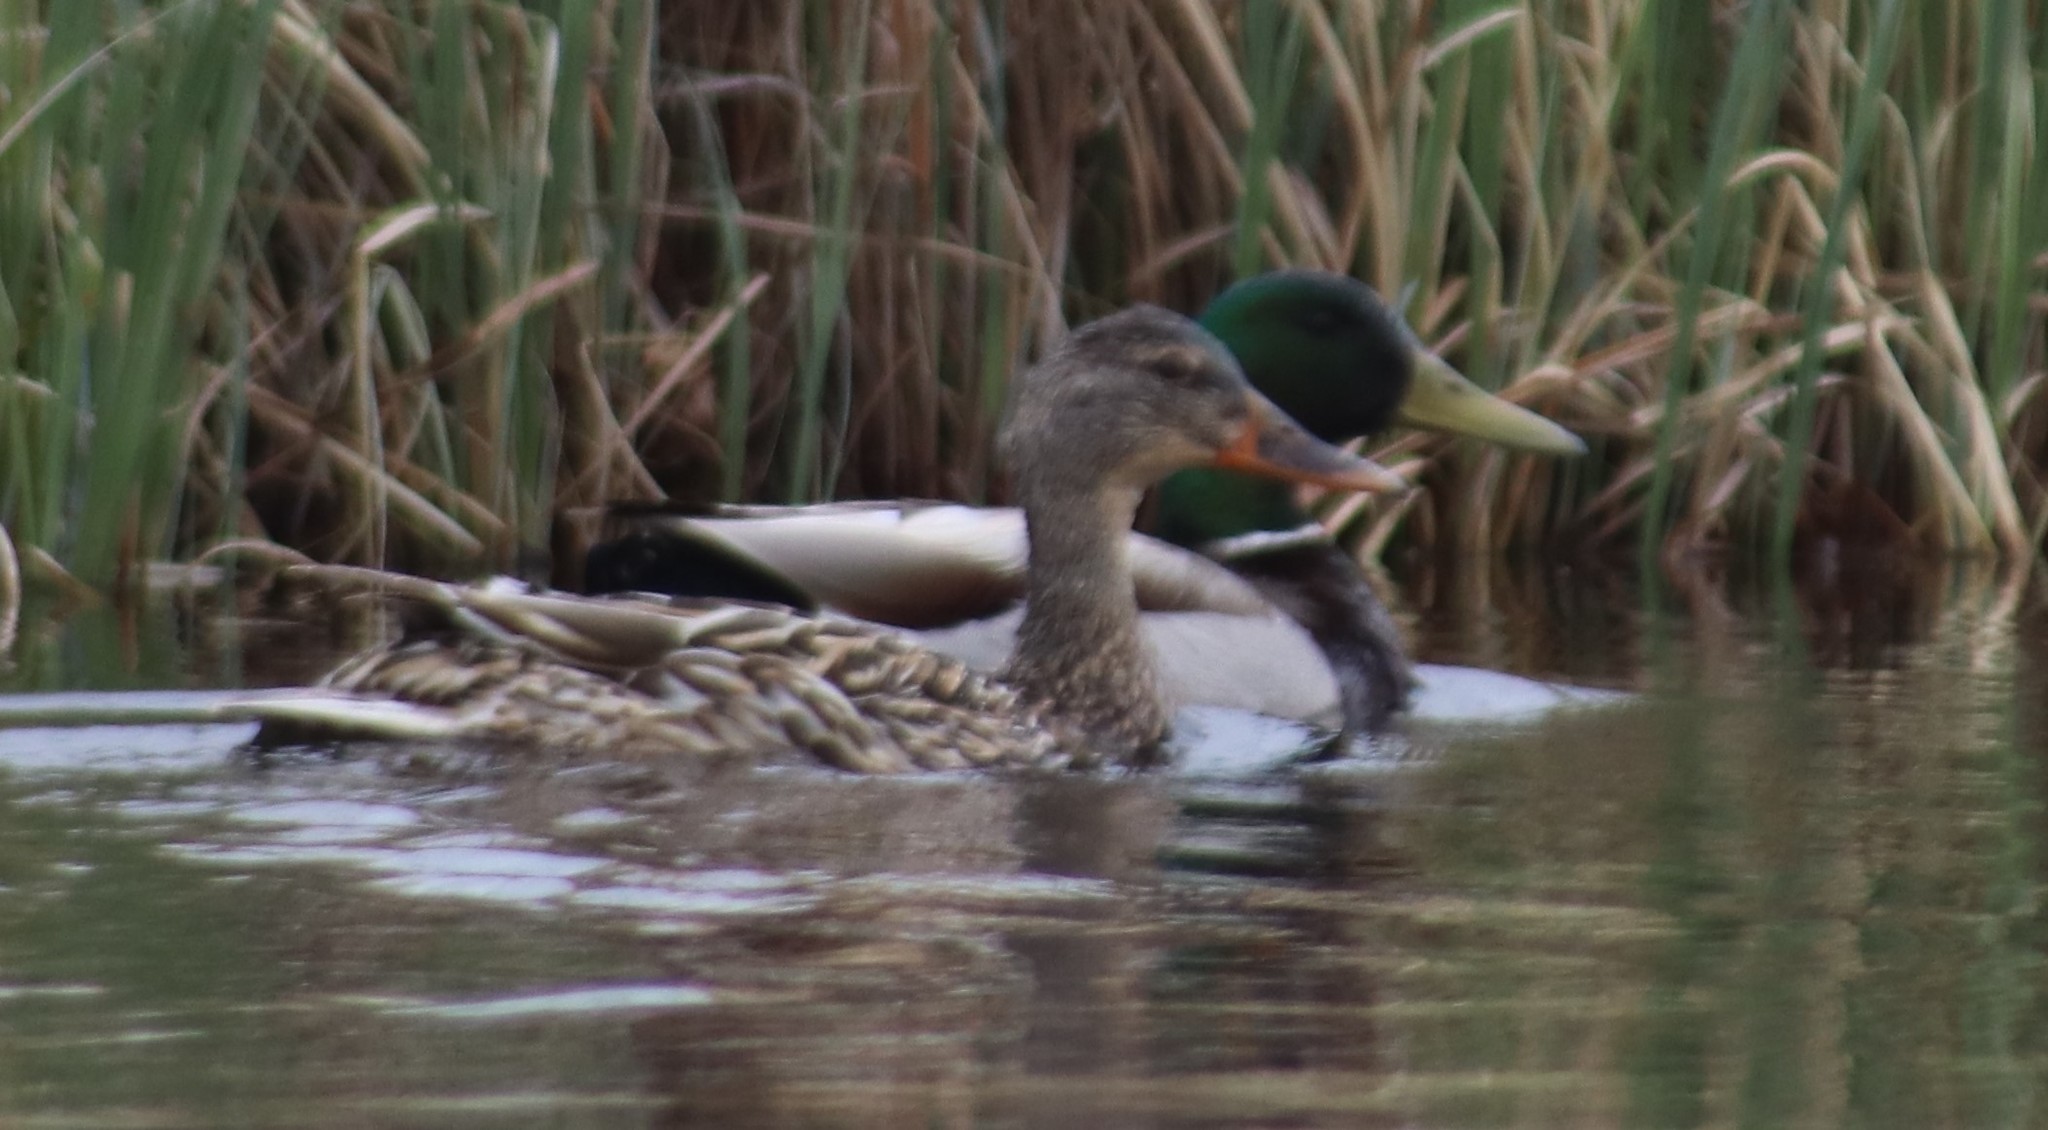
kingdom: Animalia
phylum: Chordata
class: Aves
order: Anseriformes
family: Anatidae
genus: Anas
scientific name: Anas platyrhynchos
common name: Mallard
